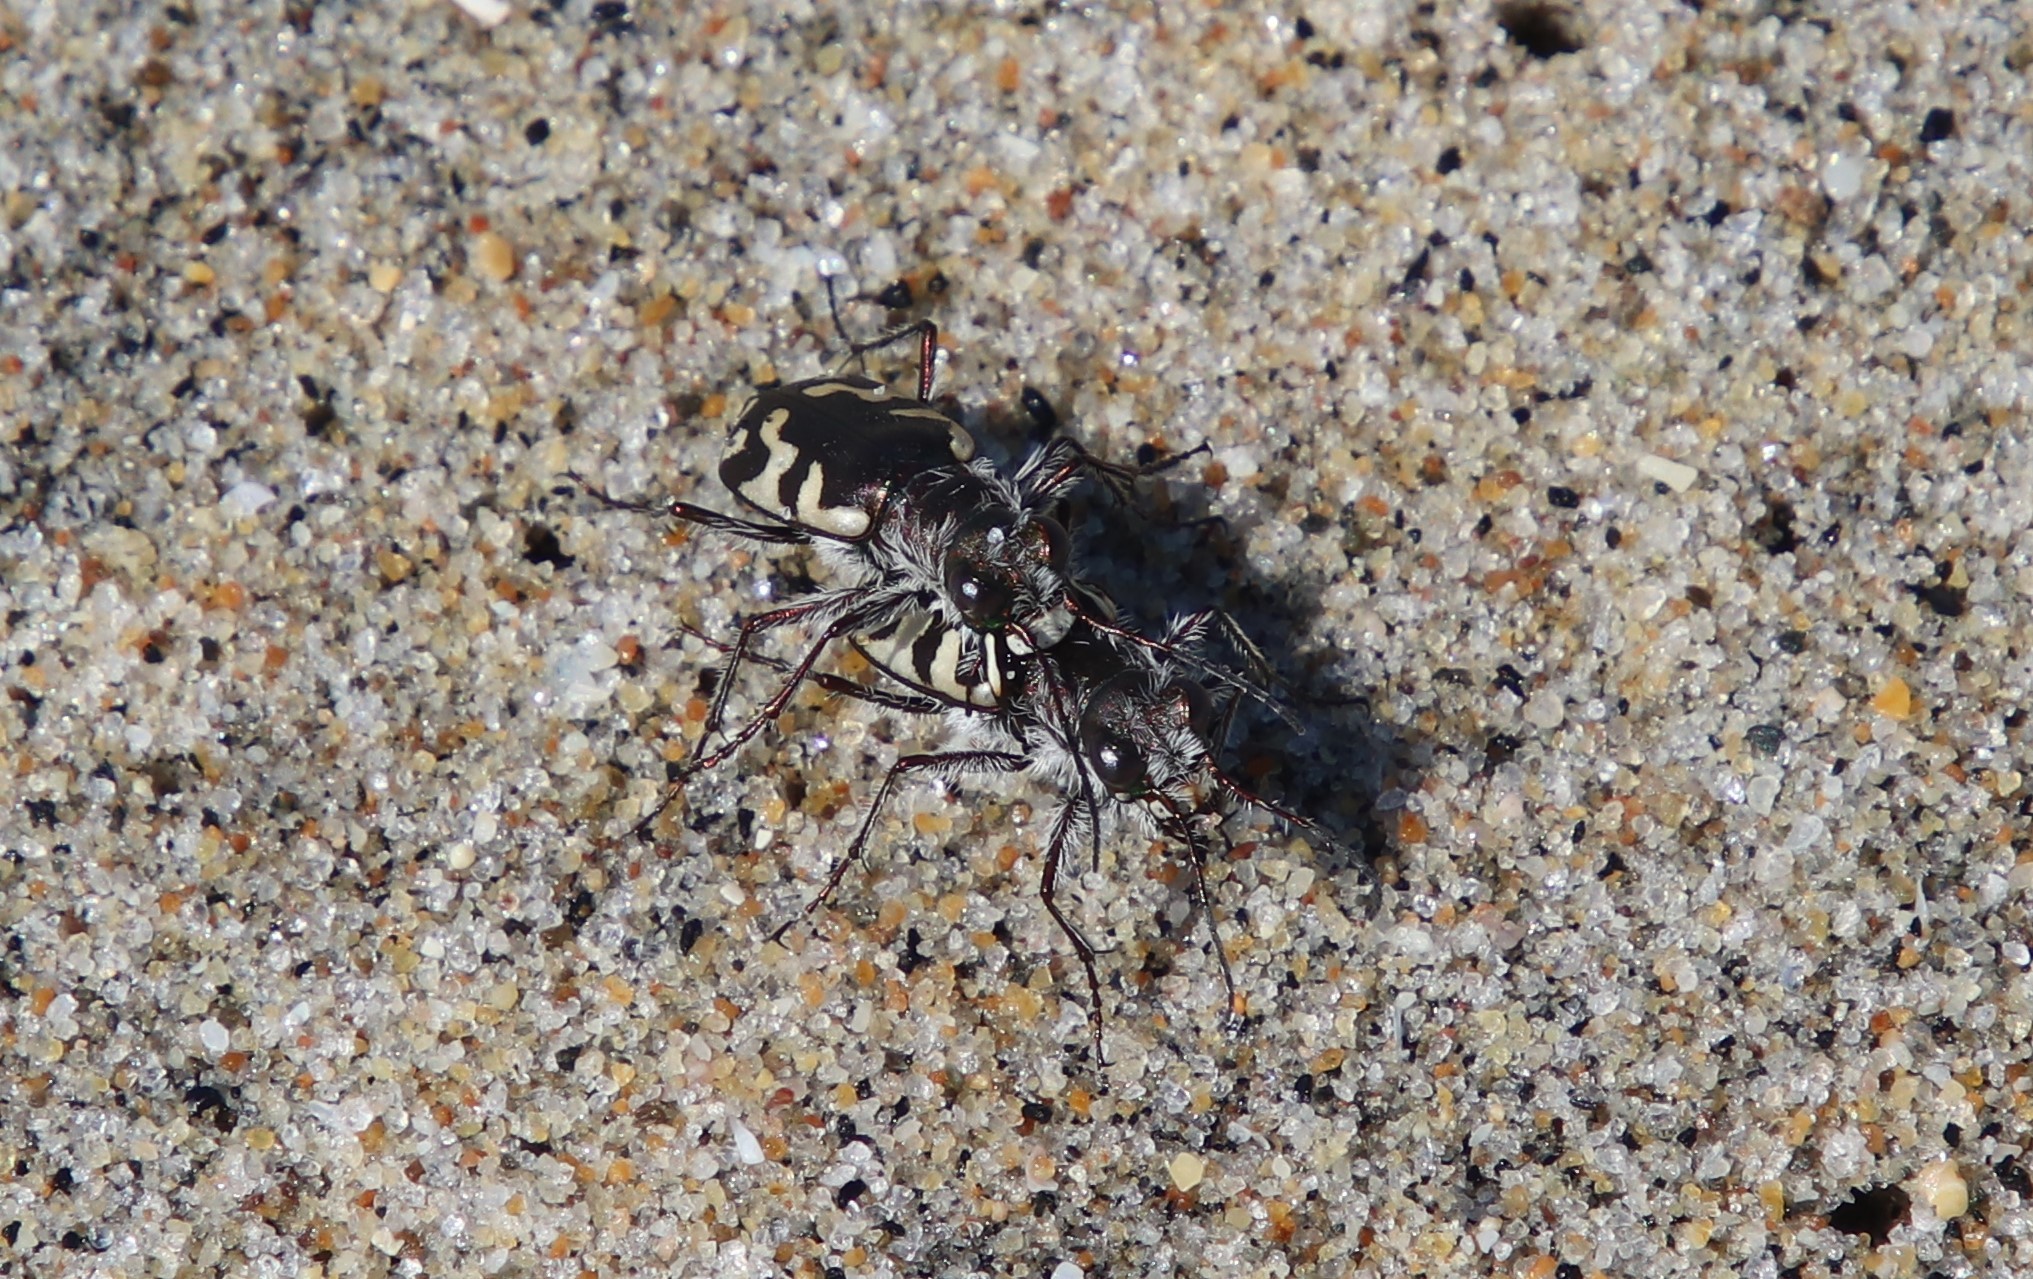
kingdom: Animalia
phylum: Arthropoda
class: Insecta
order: Coleoptera
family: Carabidae
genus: Cicindela
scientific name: Cicindela latesignata
